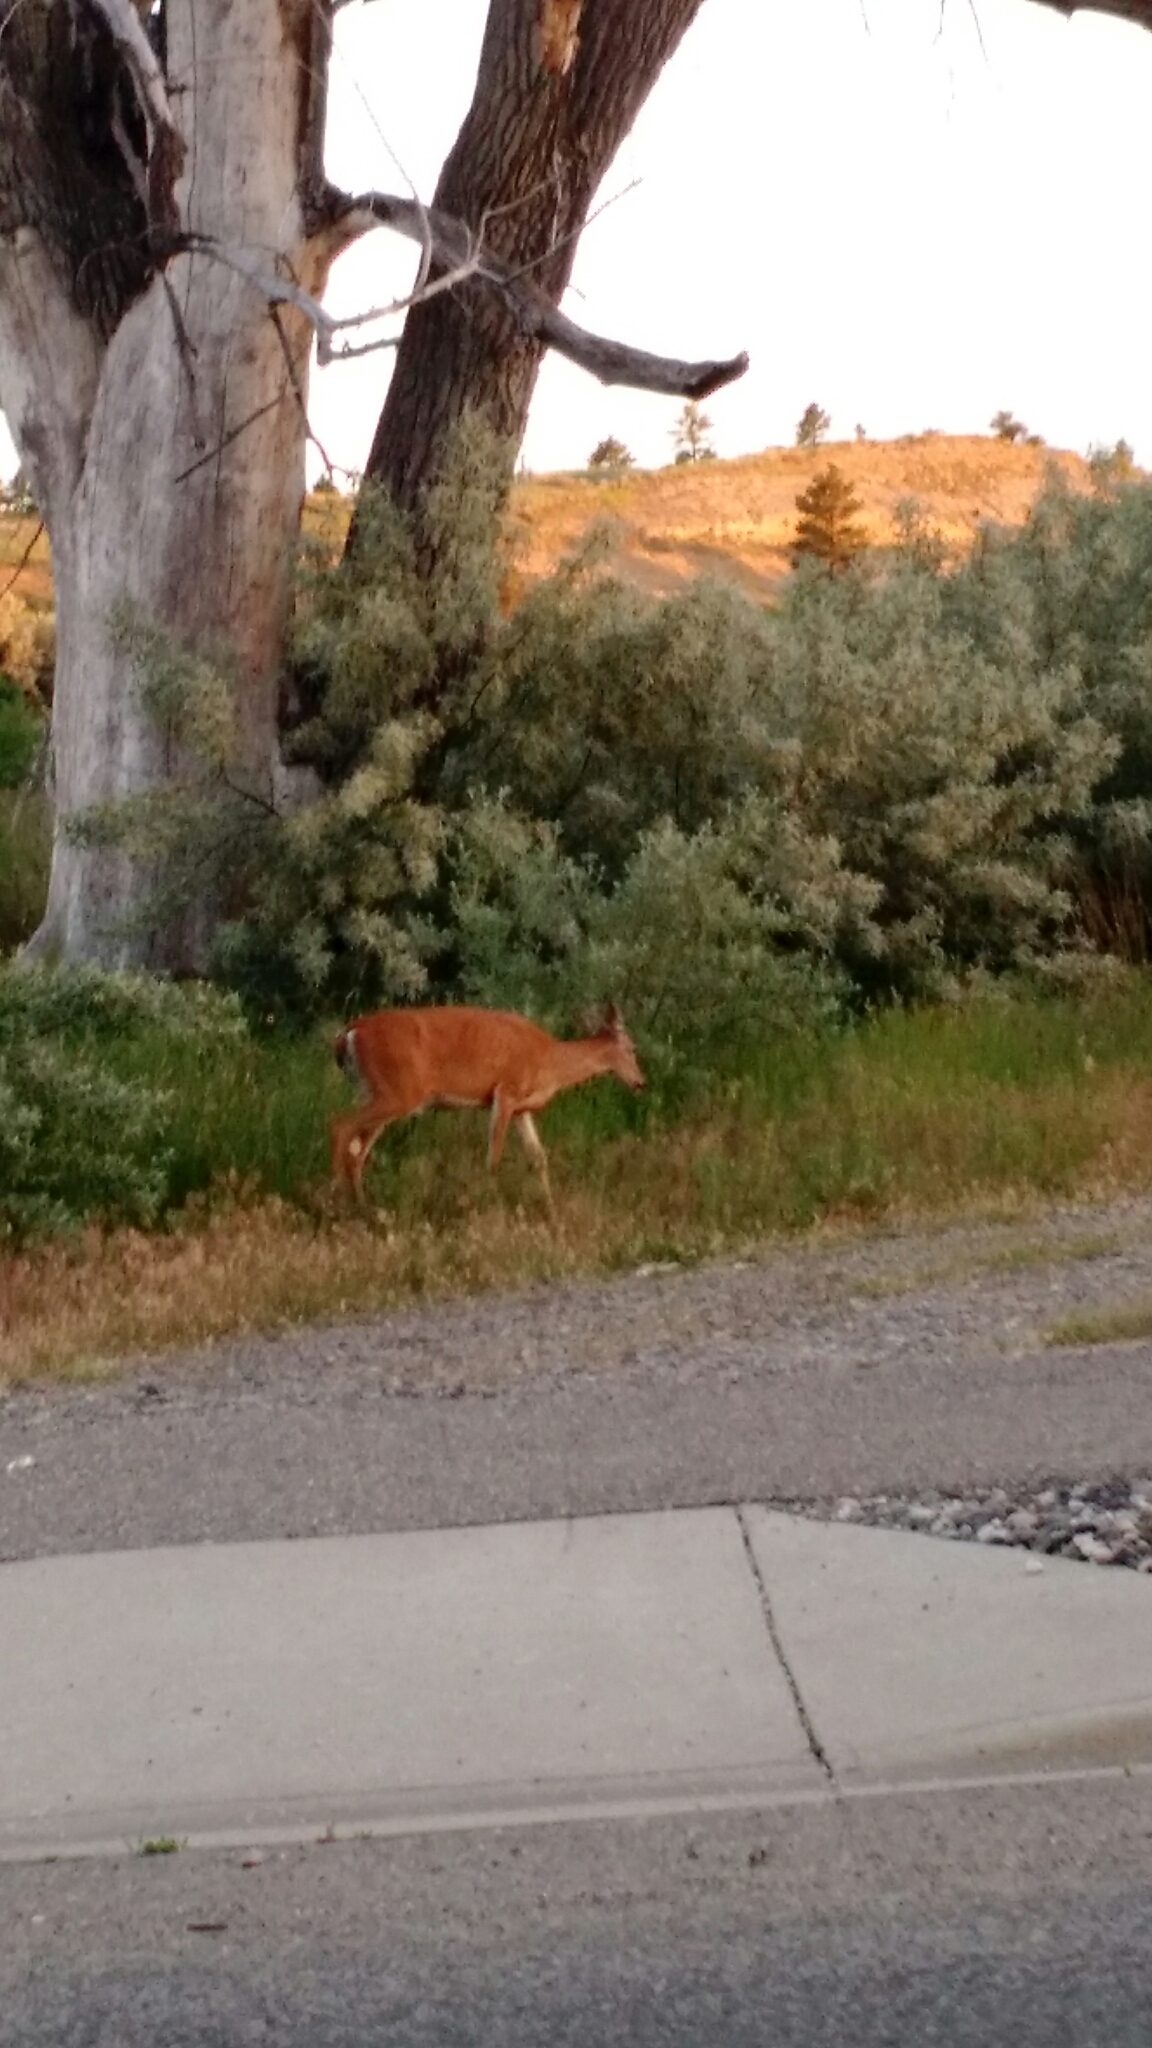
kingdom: Animalia
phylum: Chordata
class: Mammalia
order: Artiodactyla
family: Cervidae
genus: Odocoileus
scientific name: Odocoileus virginianus
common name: White-tailed deer
